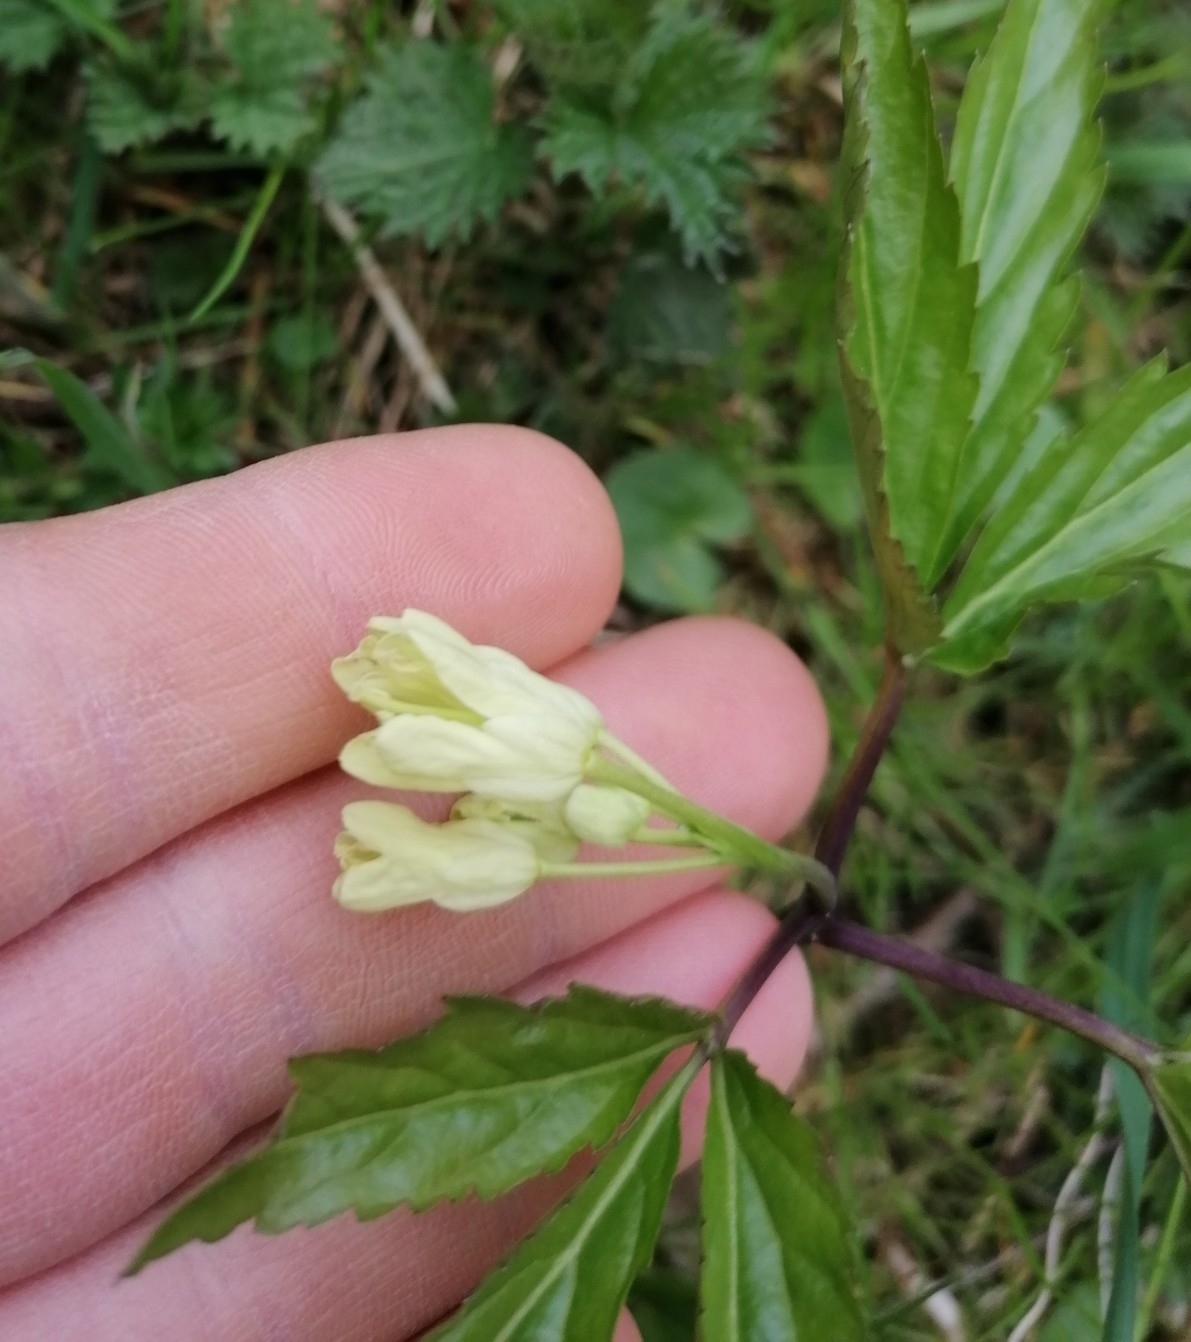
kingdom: Plantae
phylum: Tracheophyta
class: Magnoliopsida
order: Brassicales
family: Brassicaceae
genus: Cardamine
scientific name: Cardamine enneaphyllos
